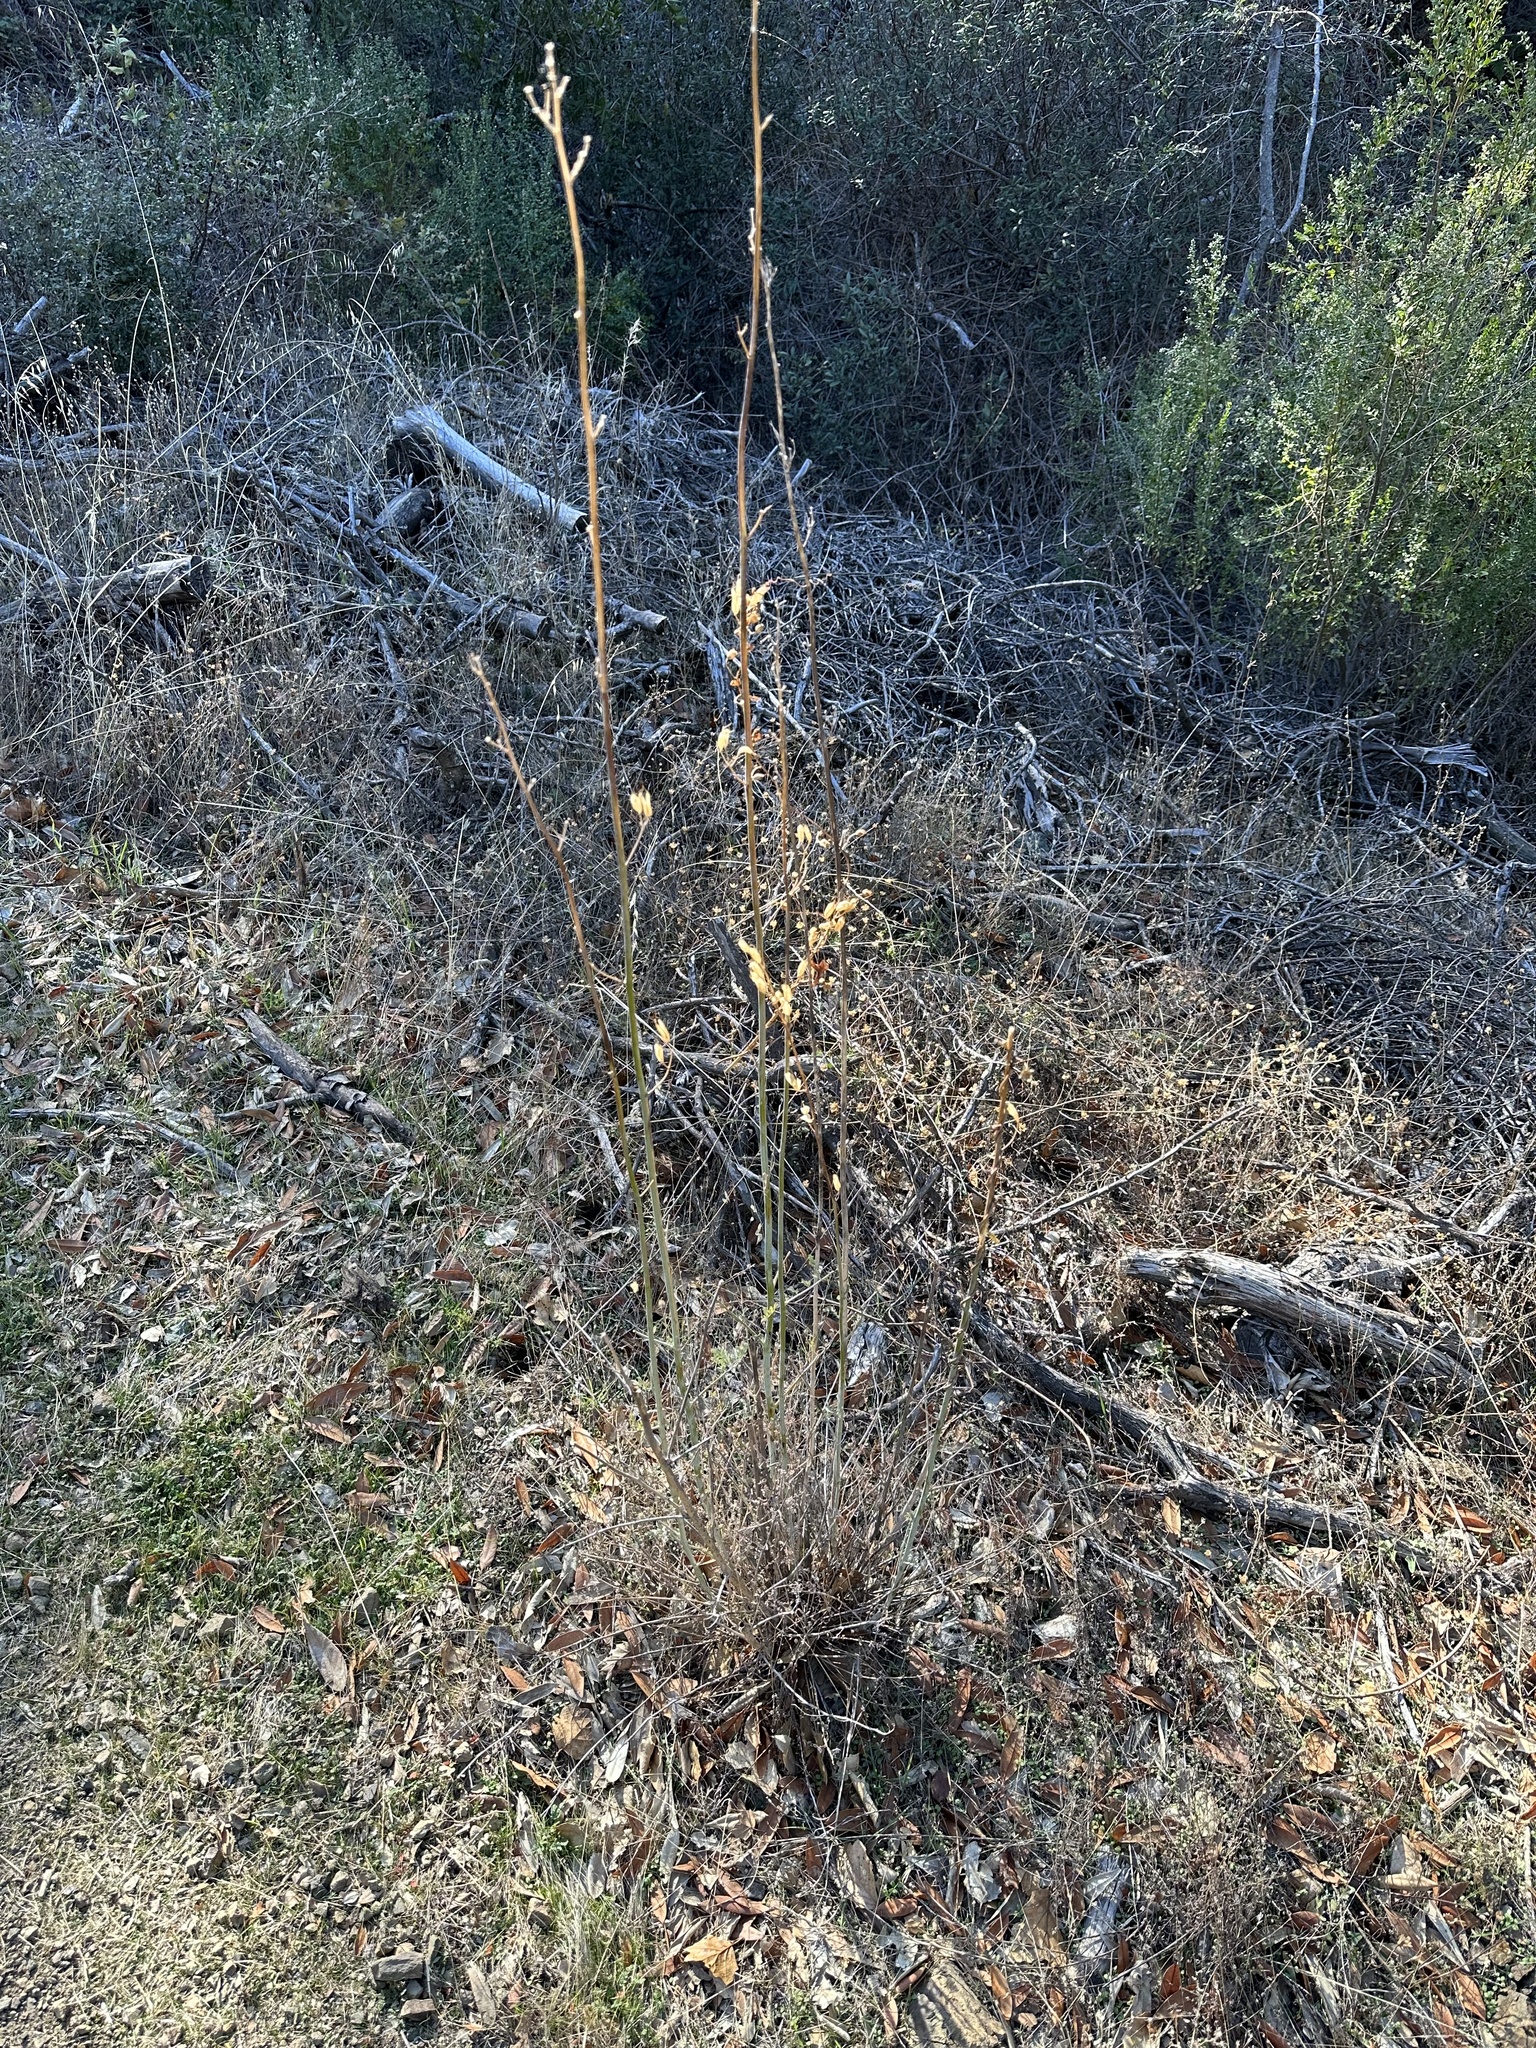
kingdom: Plantae
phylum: Tracheophyta
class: Magnoliopsida
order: Ranunculales
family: Papaveraceae
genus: Ehrendorferia
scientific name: Ehrendorferia chrysantha
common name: Golden eardrops
